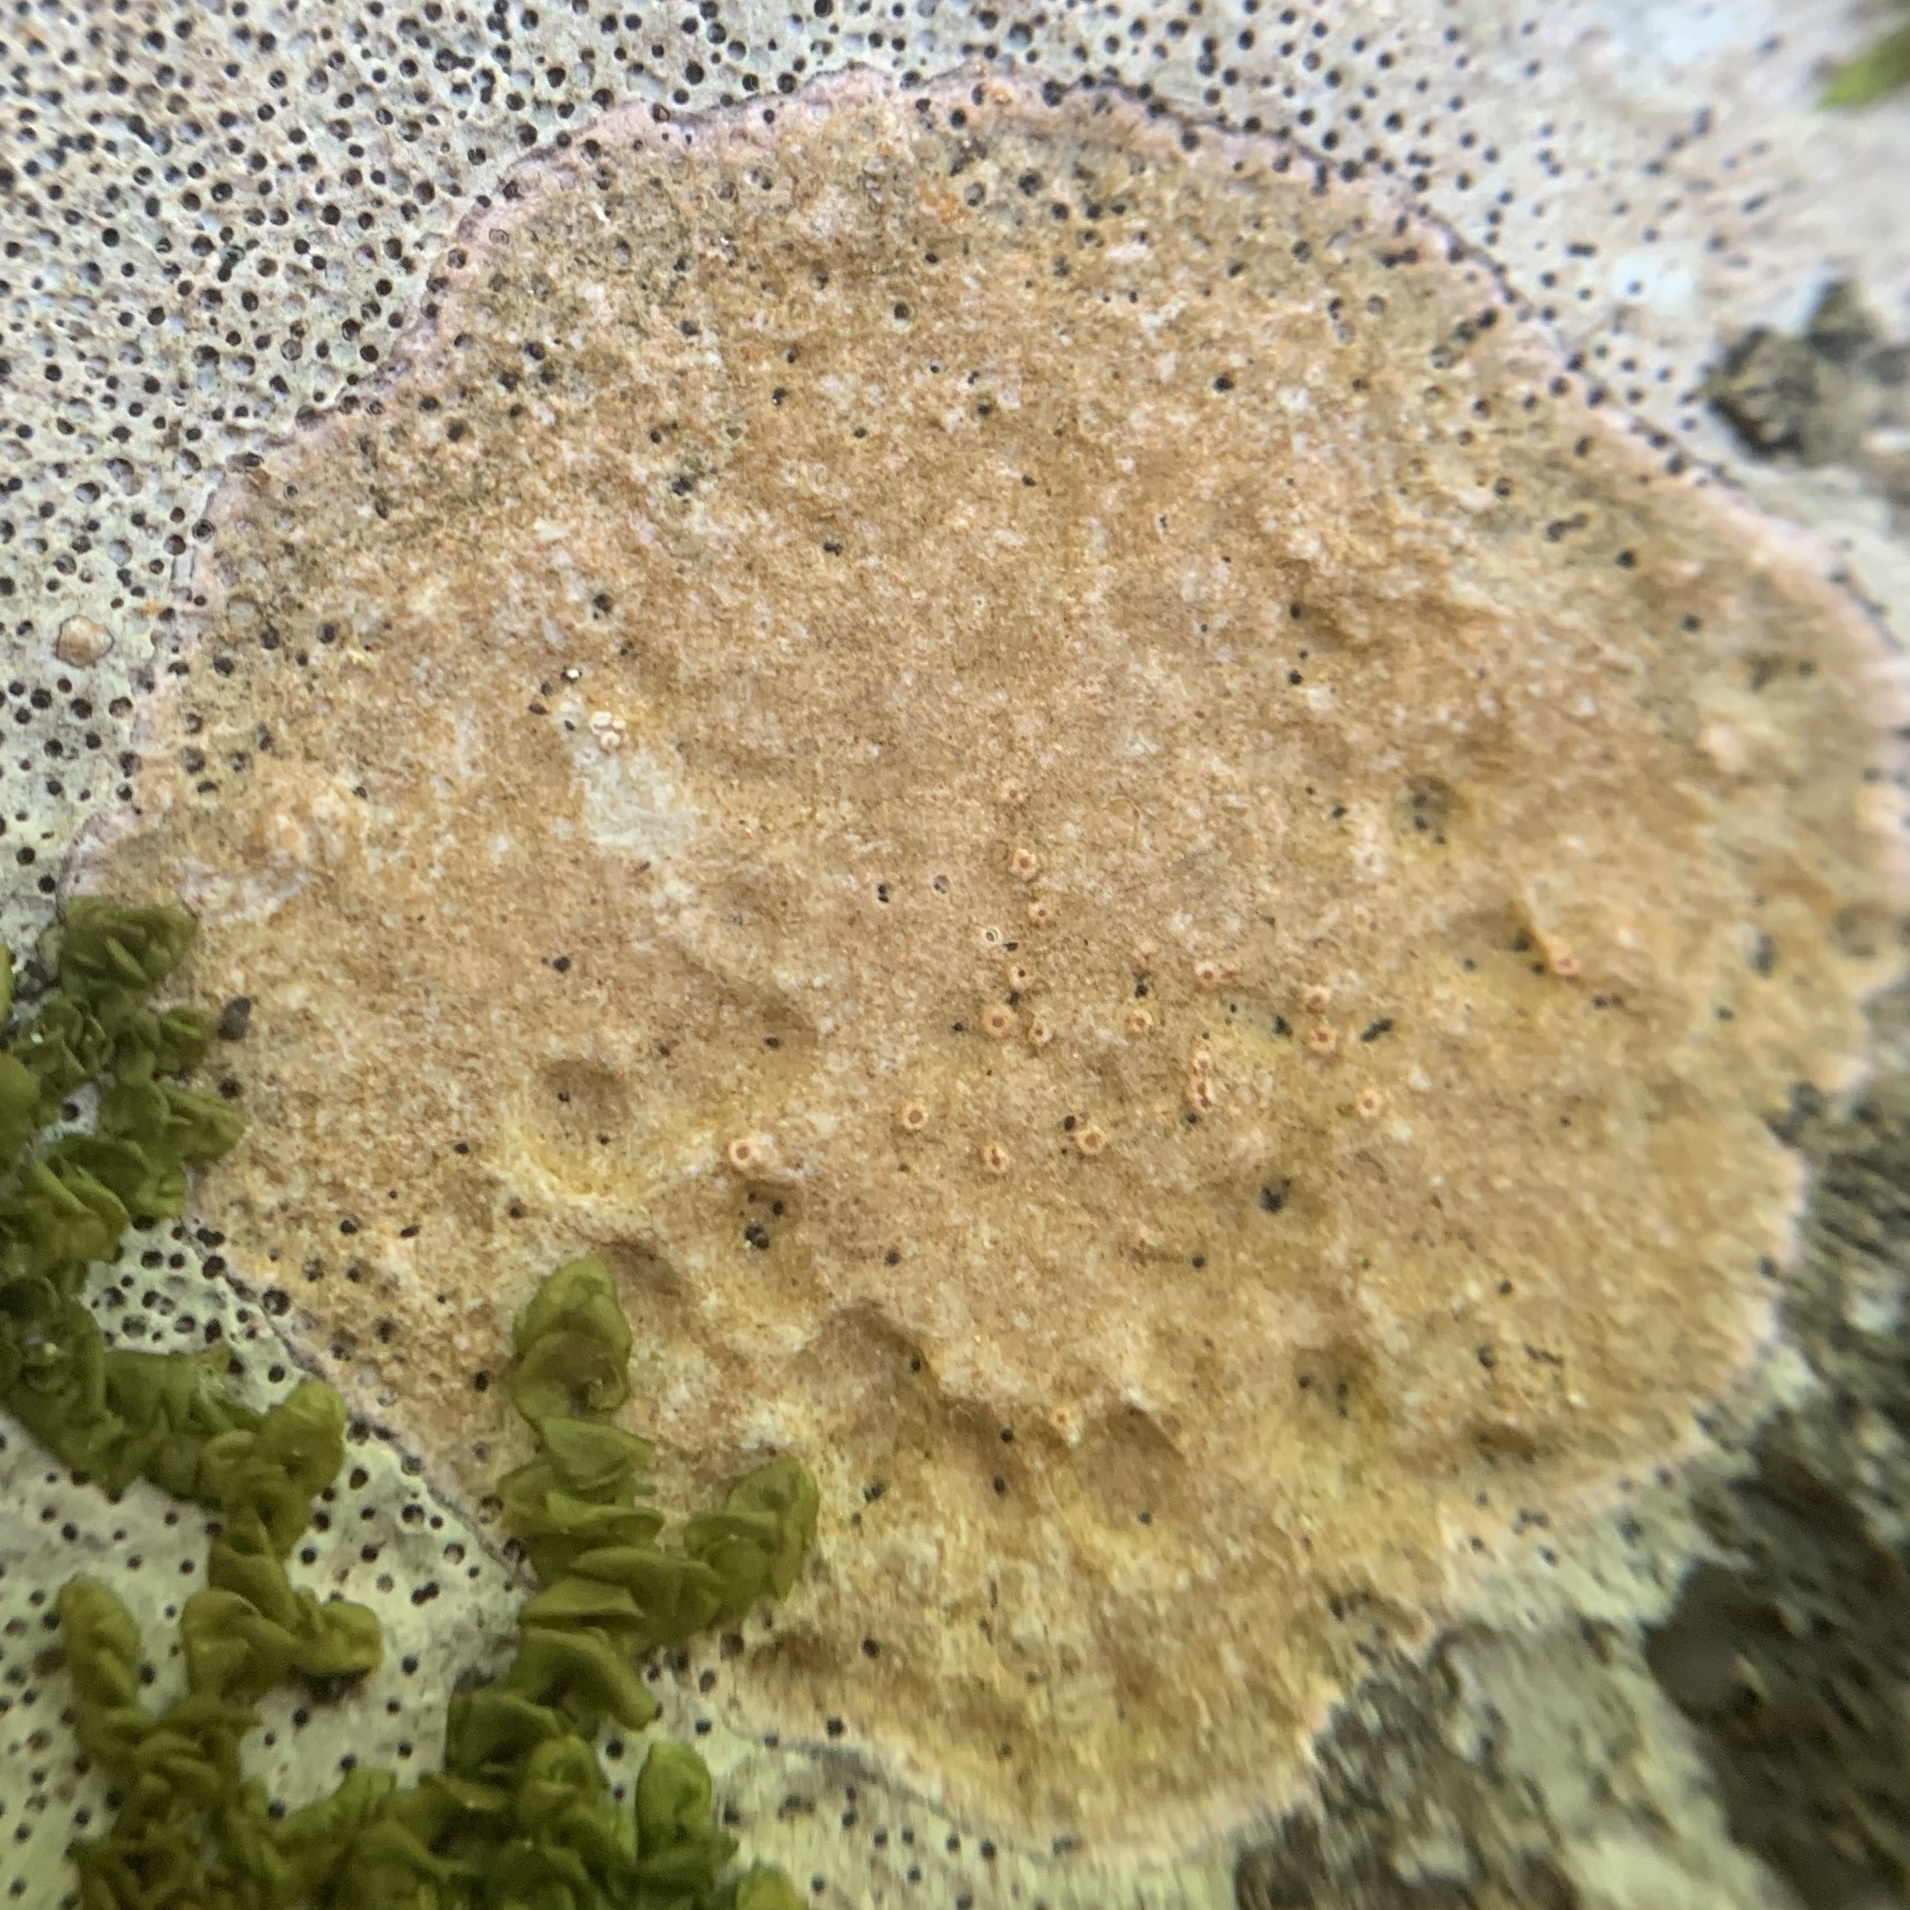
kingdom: Fungi
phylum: Ascomycota
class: Lecanoromycetes
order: Ostropales
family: Stictidaceae
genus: Petractis
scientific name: Petractis farlowii
